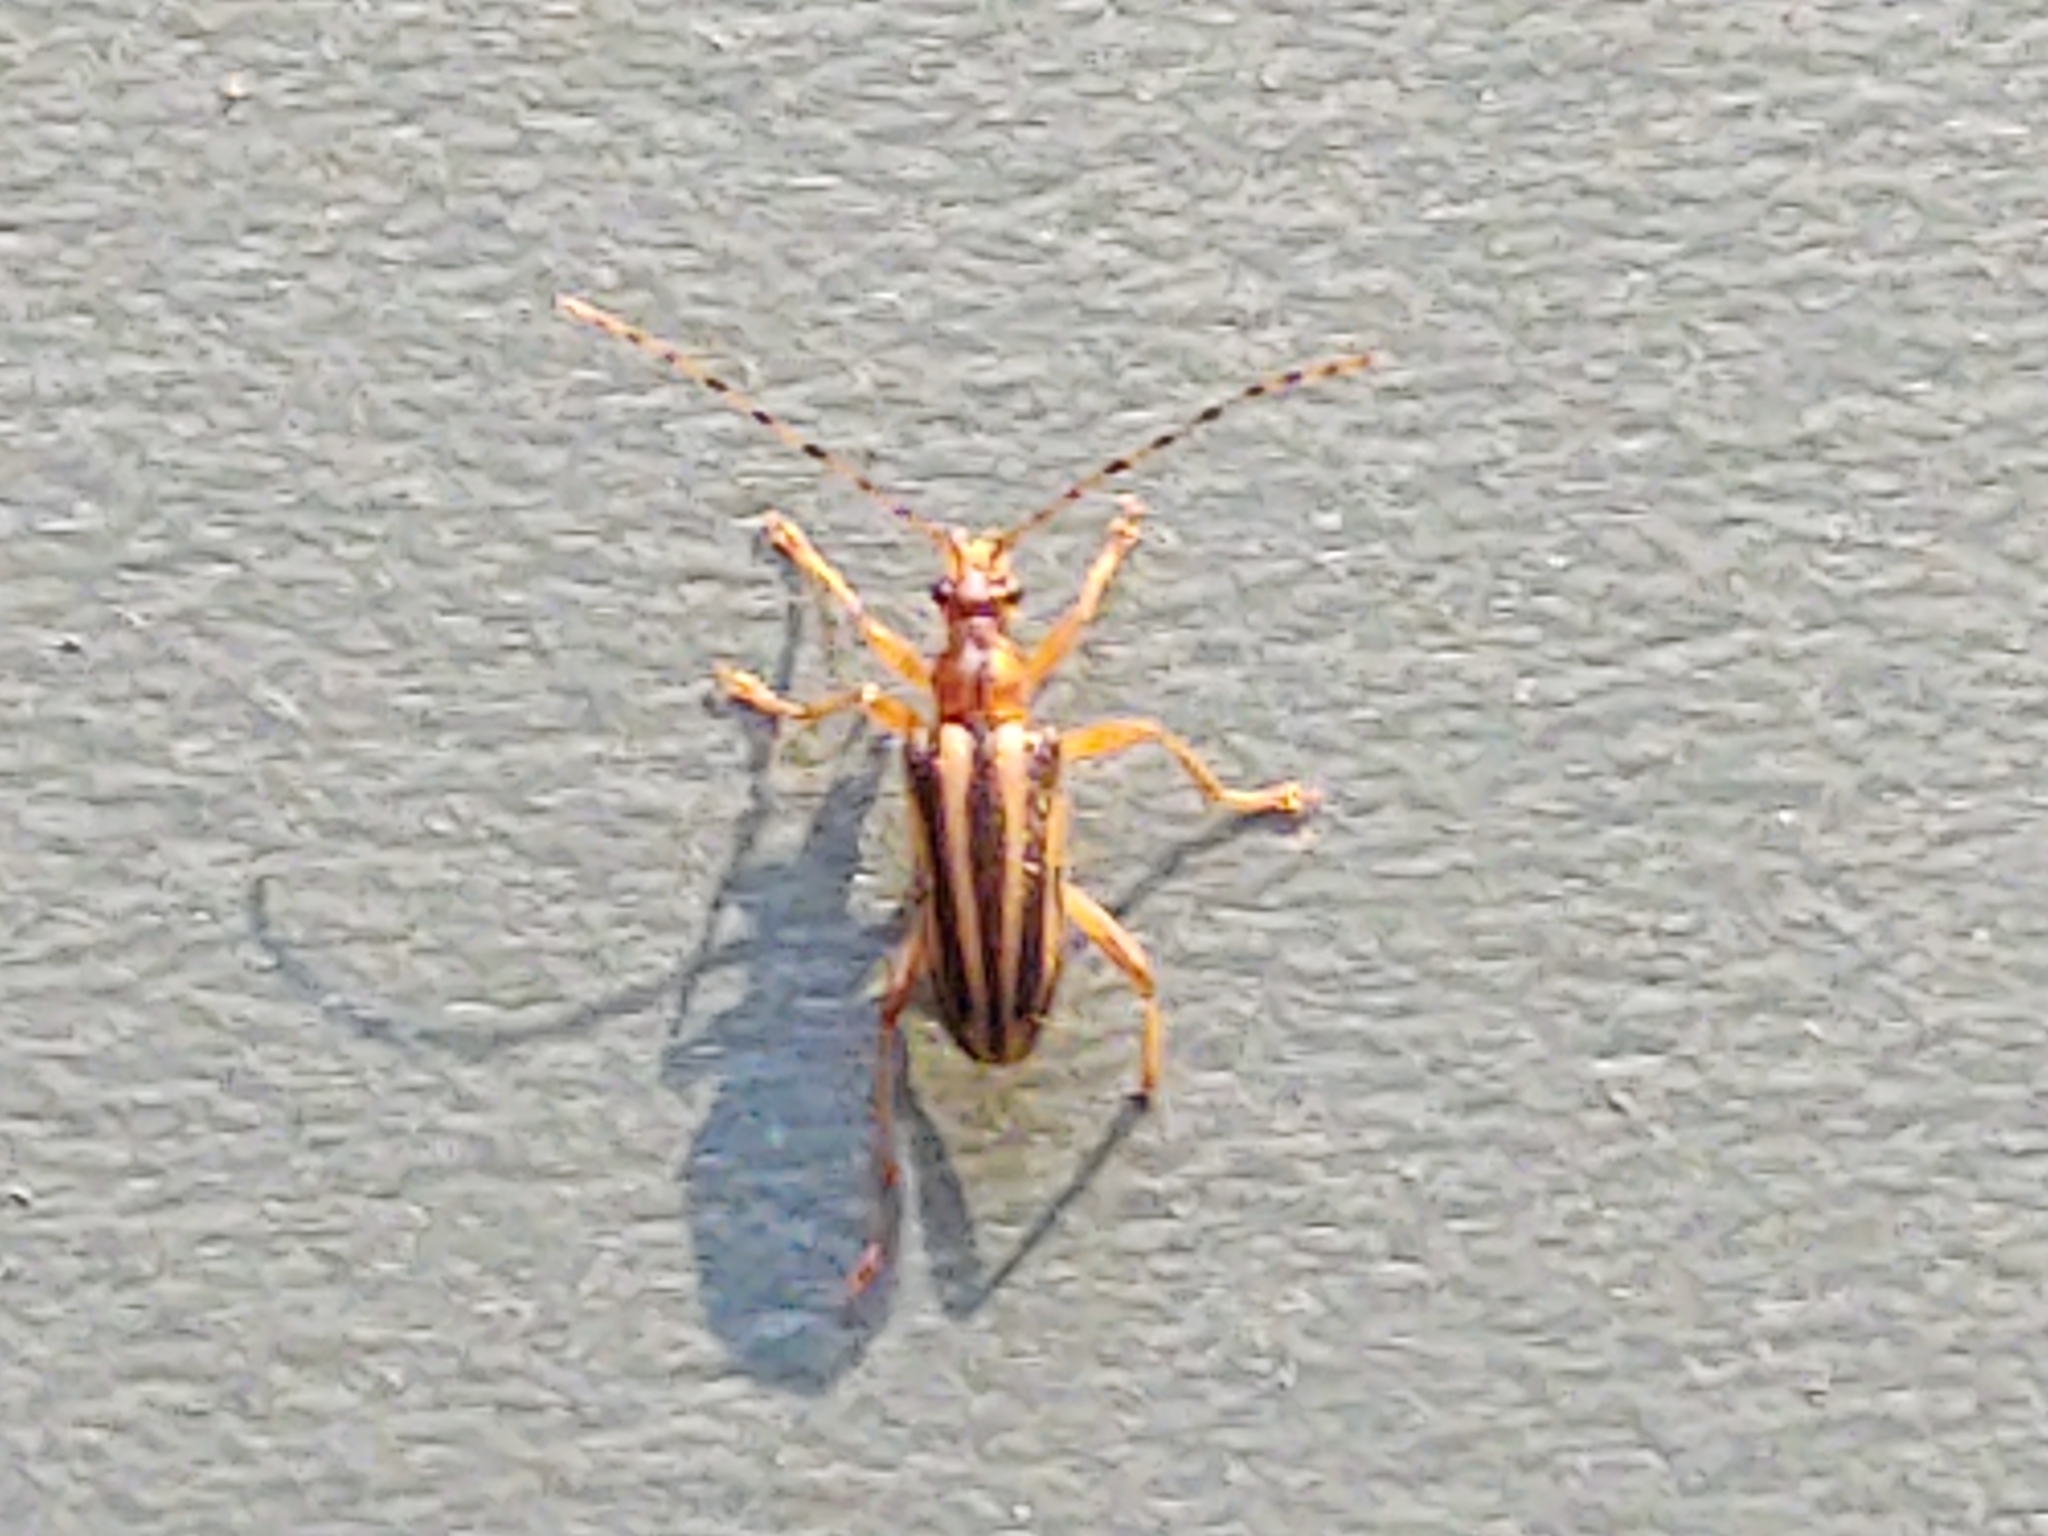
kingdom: Animalia
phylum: Arthropoda
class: Insecta
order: Coleoptera
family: Cerambycidae
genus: Metacmaeops
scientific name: Metacmaeops vittata
